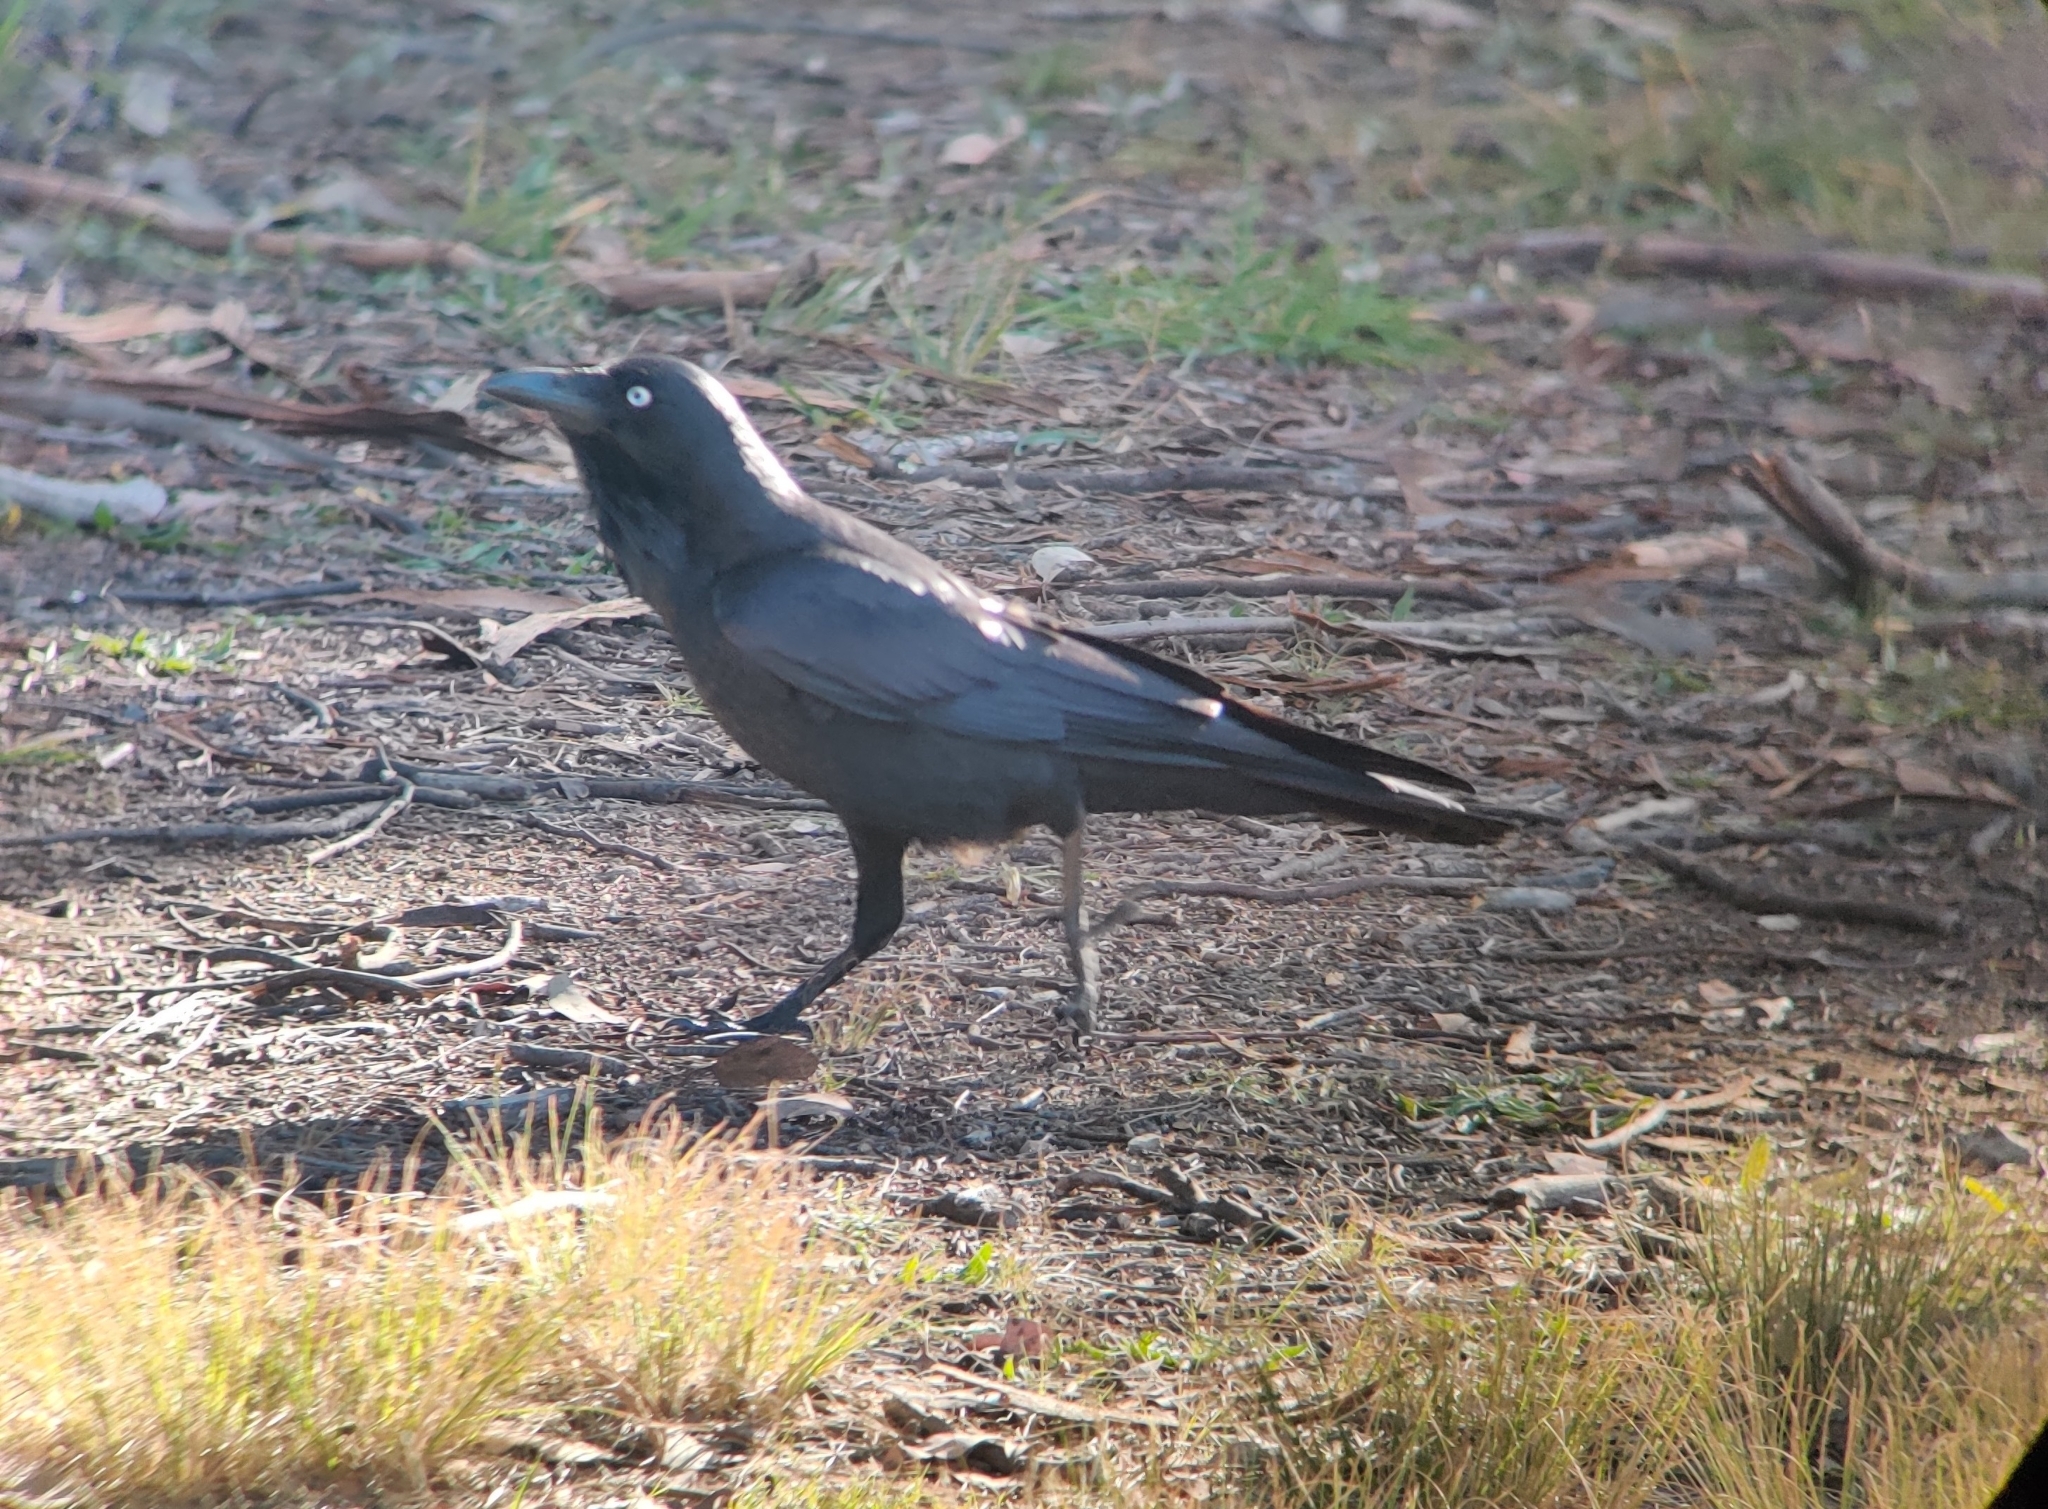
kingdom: Animalia
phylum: Chordata
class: Aves
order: Passeriformes
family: Corvidae
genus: Corvus
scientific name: Corvus coronoides
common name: Australian raven
